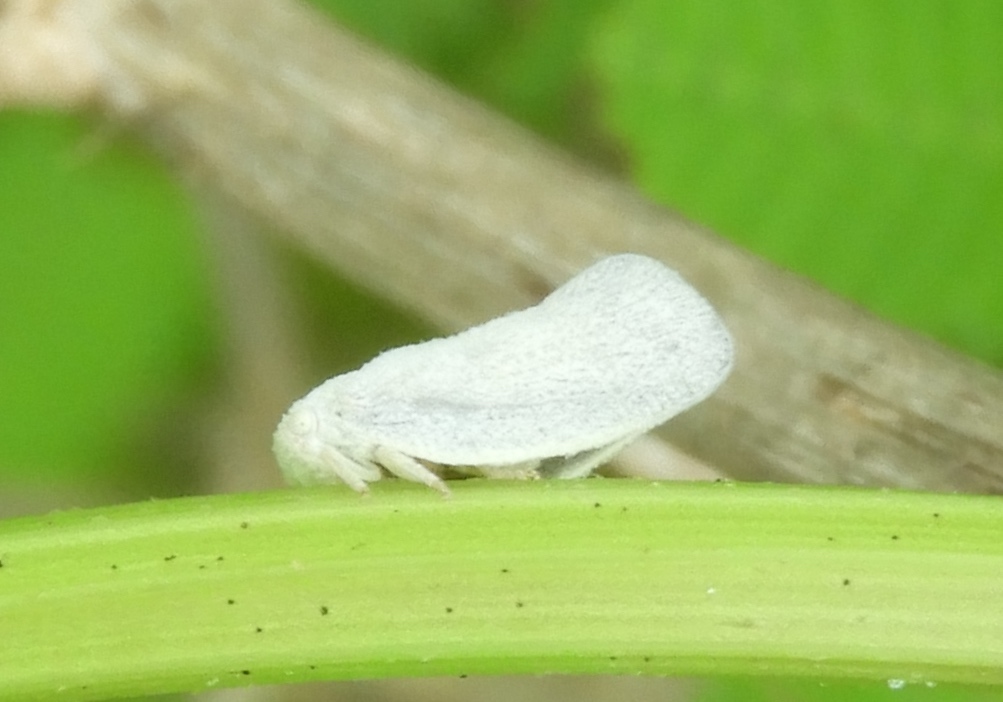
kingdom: Animalia
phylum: Arthropoda
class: Insecta
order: Hemiptera
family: Flatidae
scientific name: Flatidae
